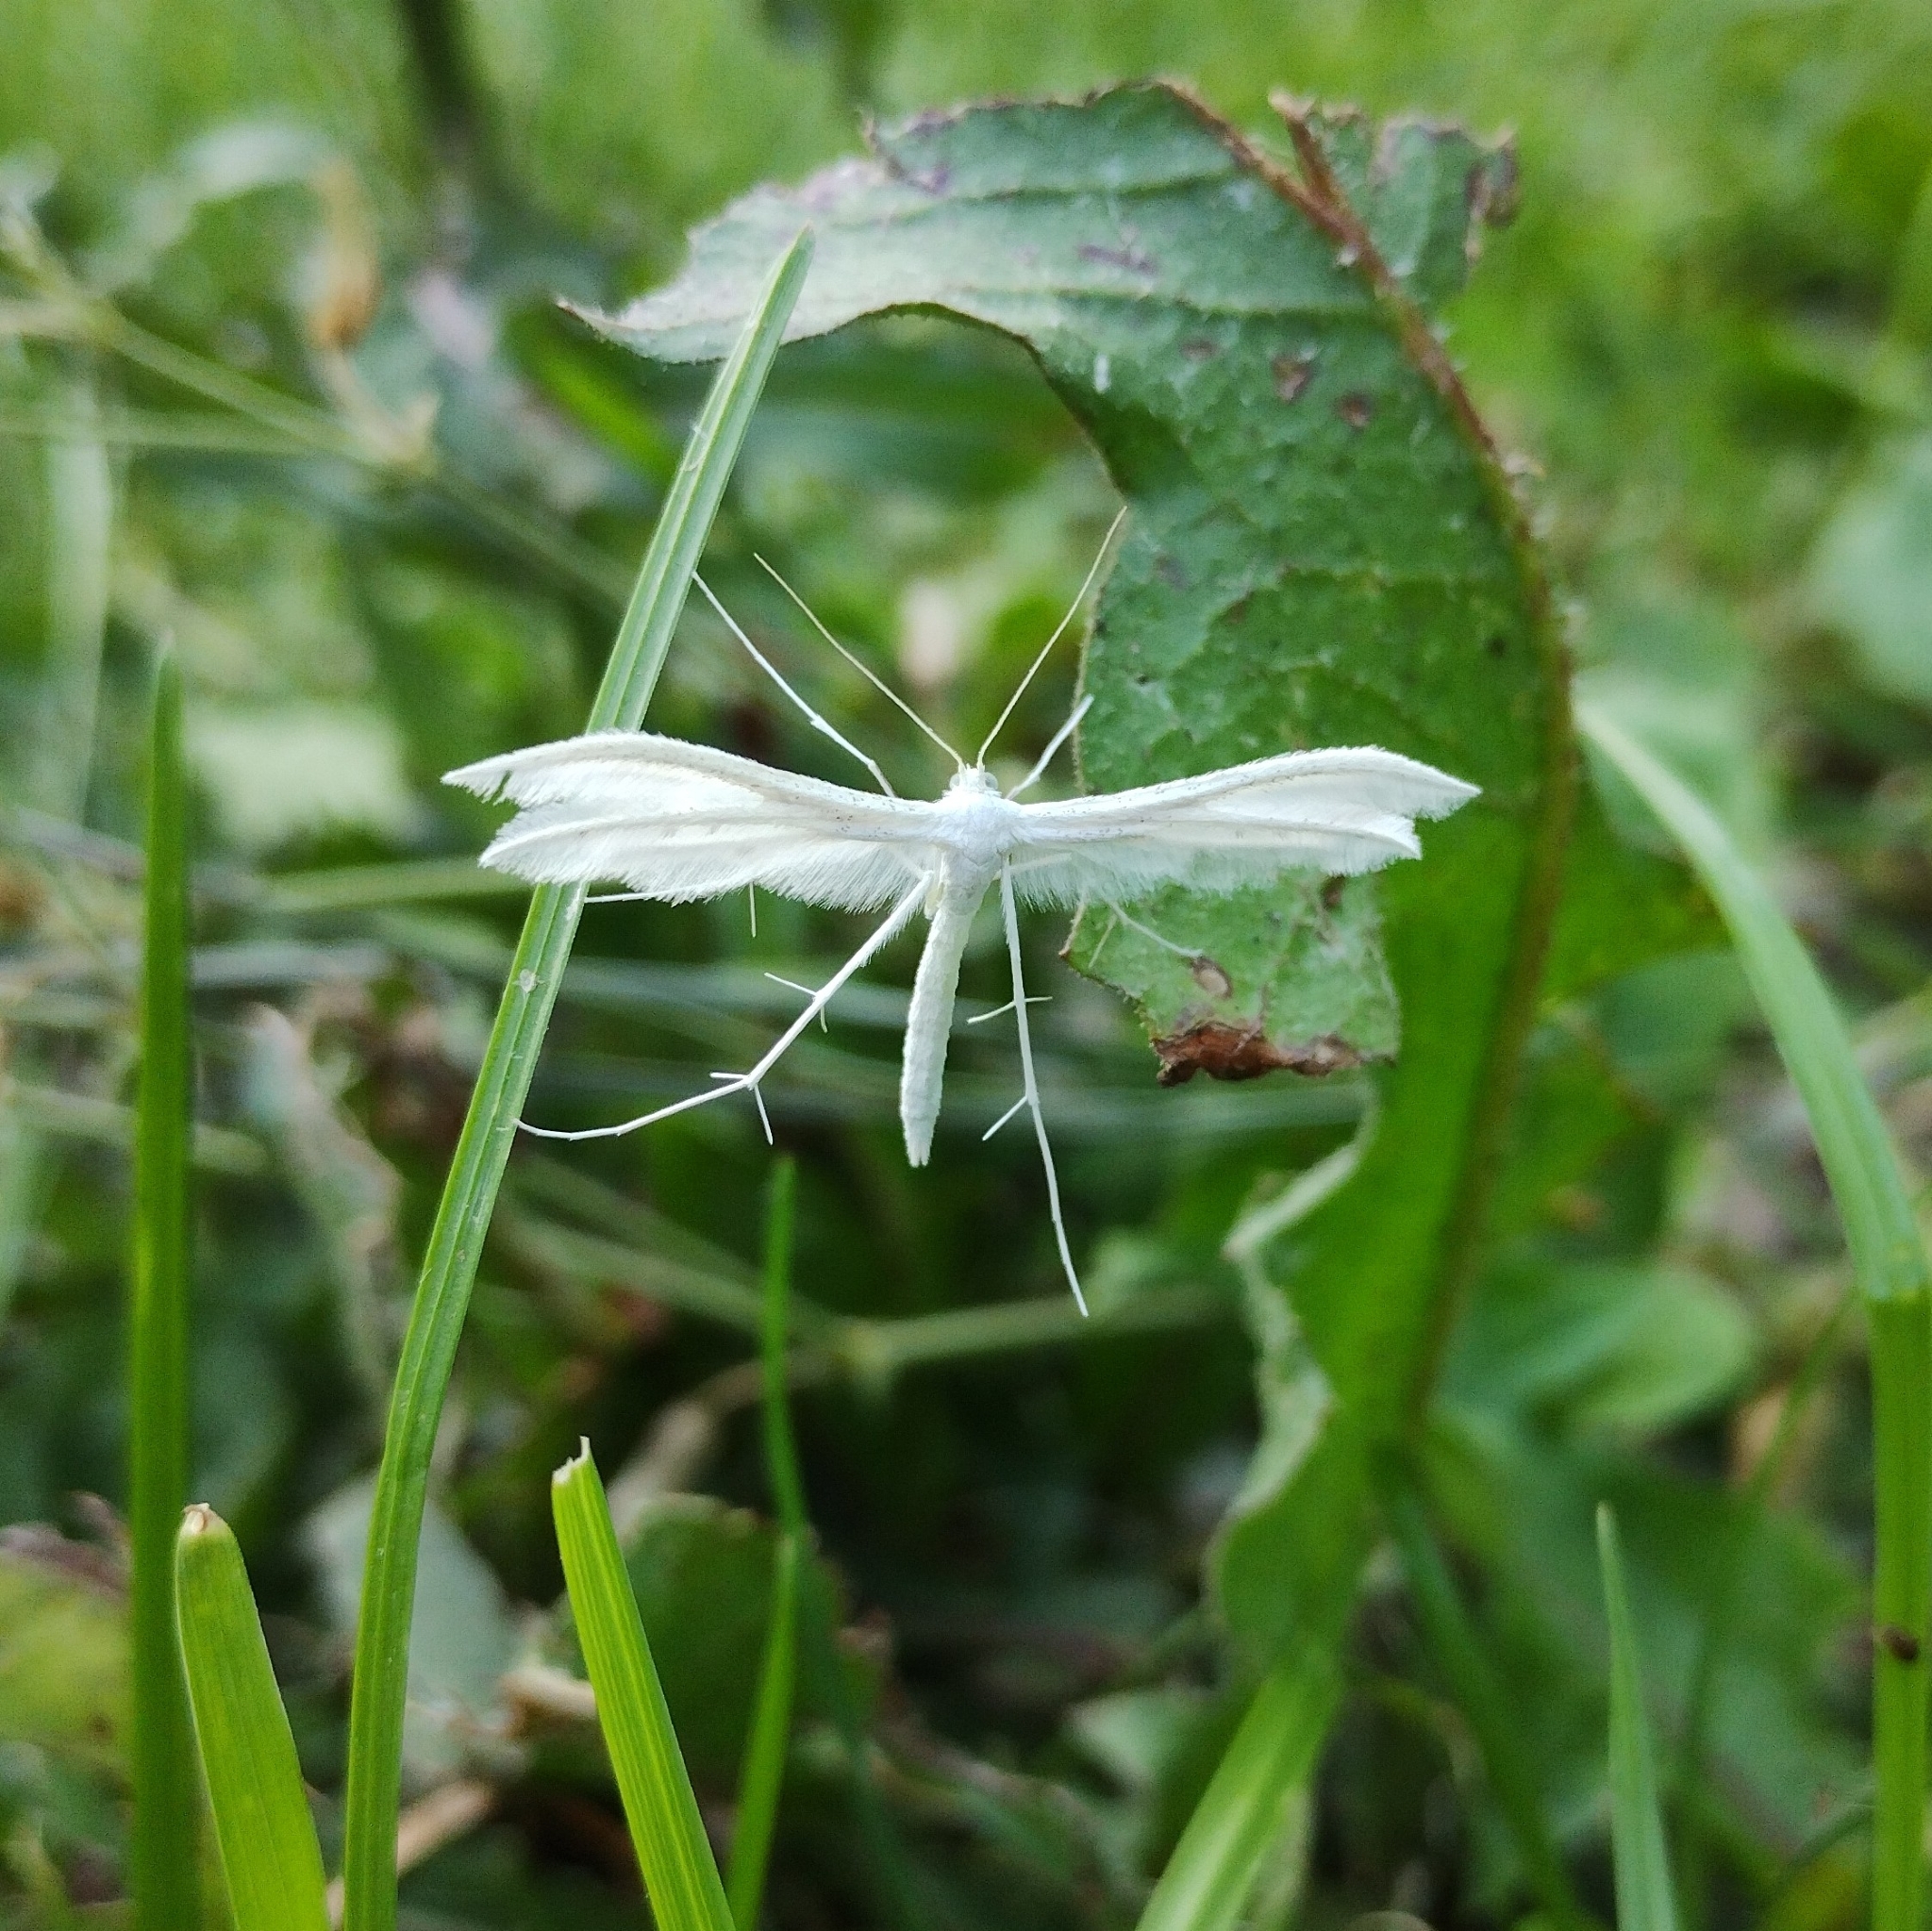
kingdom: Animalia
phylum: Arthropoda
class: Insecta
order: Lepidoptera
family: Pterophoridae
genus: Pterophorus
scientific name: Pterophorus pentadactyla
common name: White plume moth
